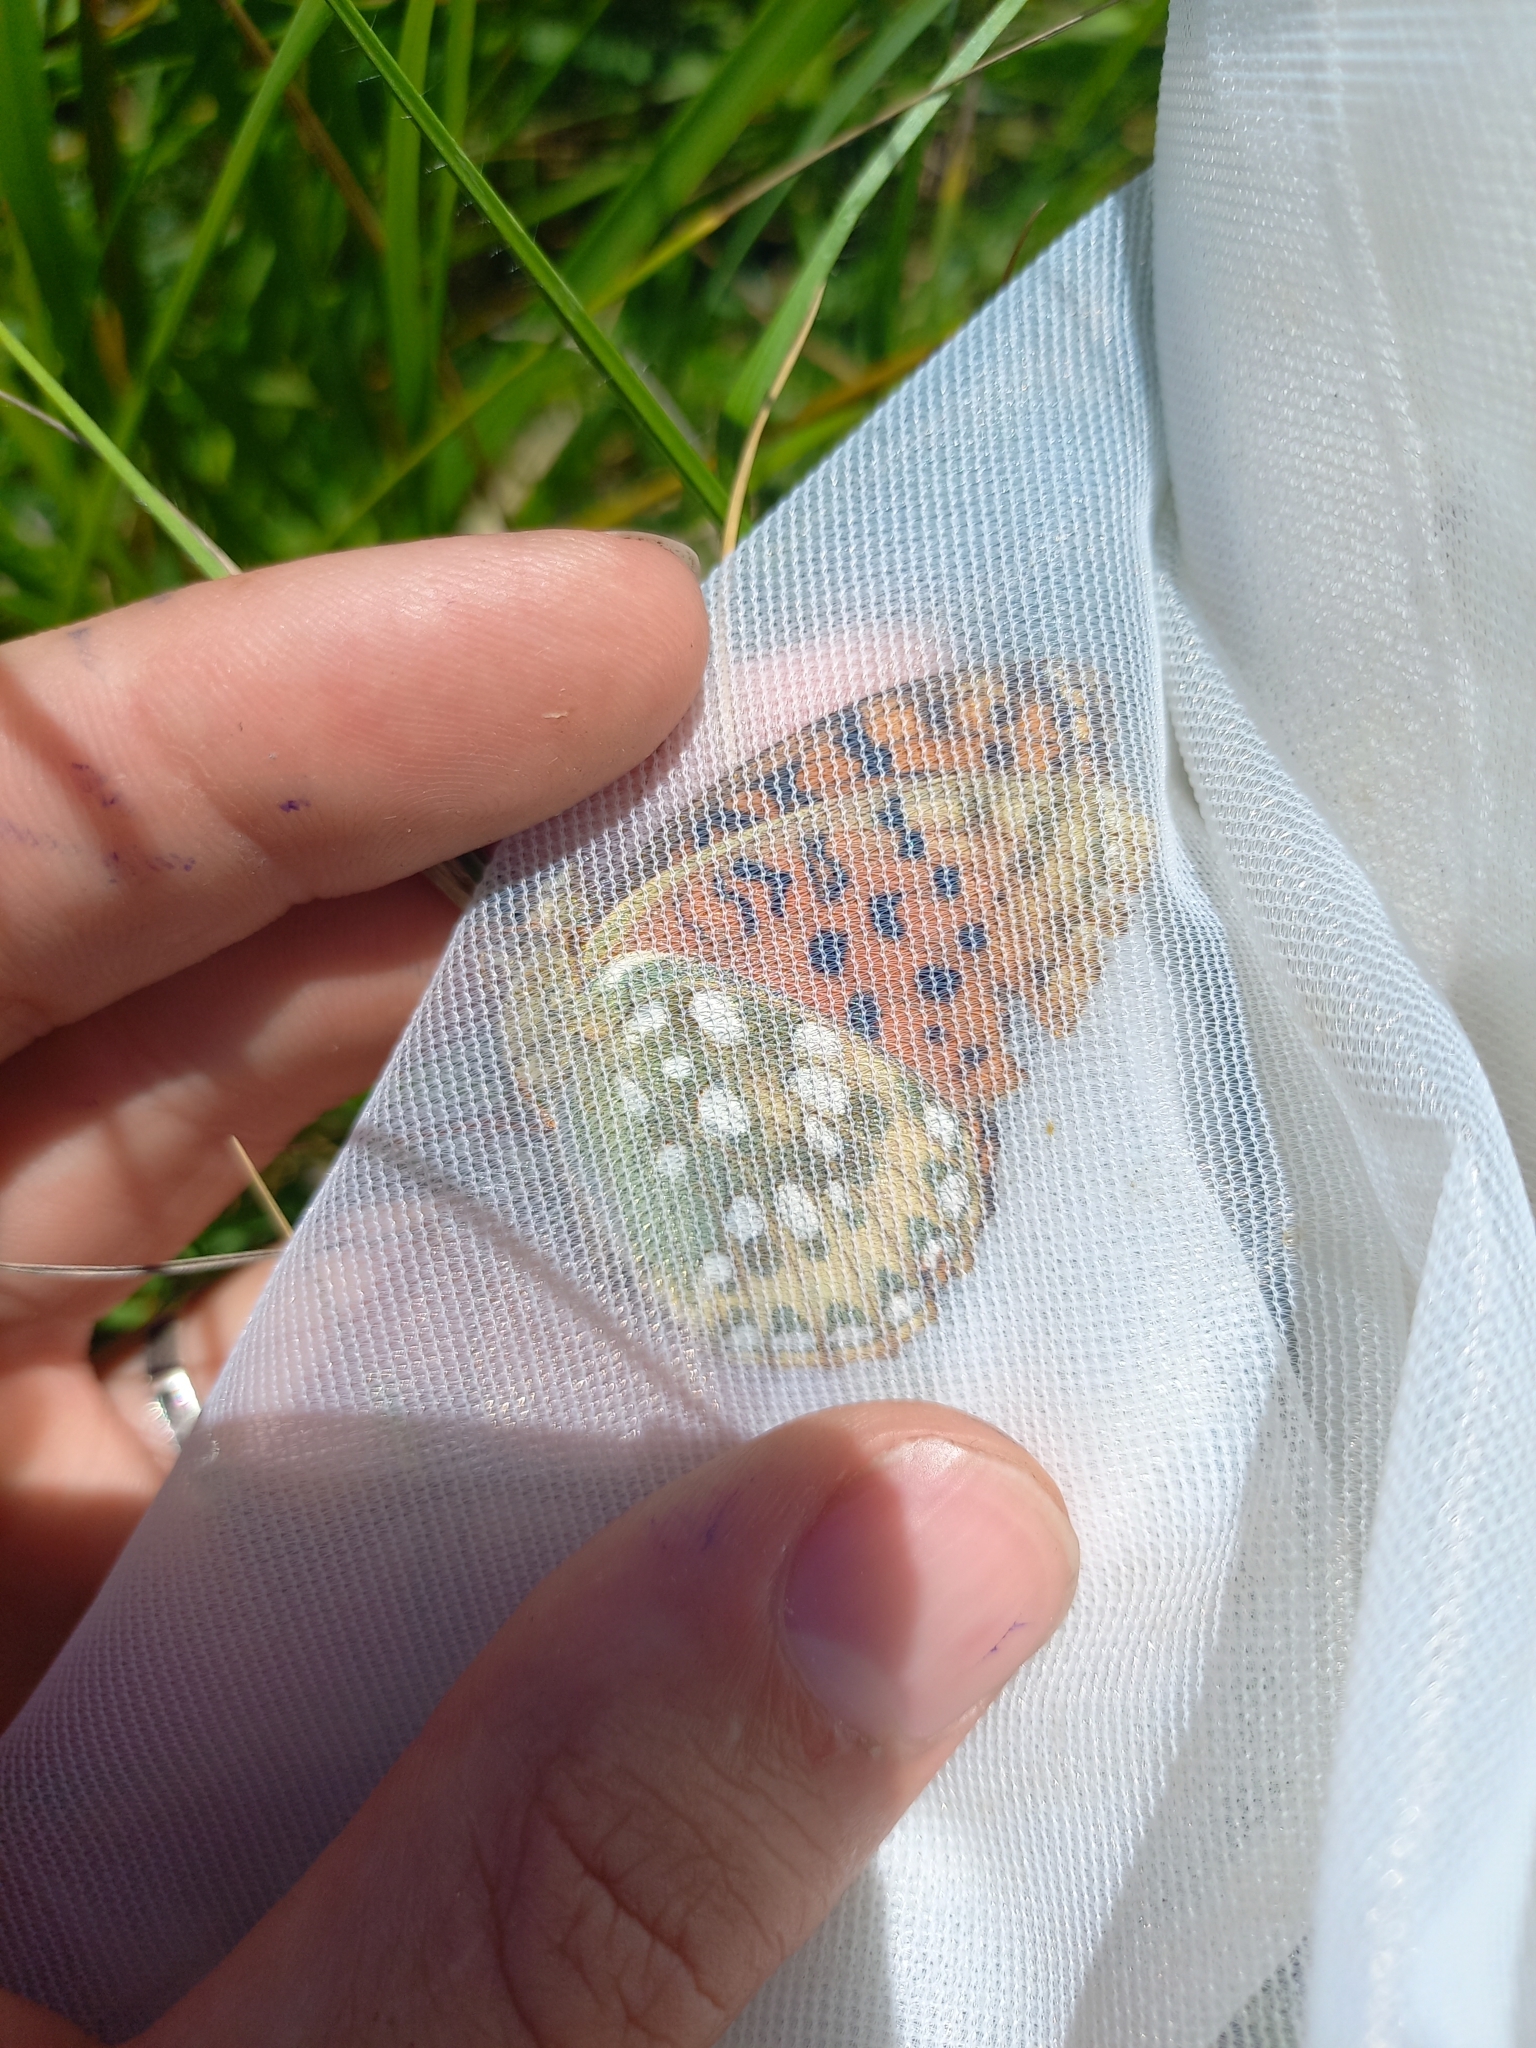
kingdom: Animalia
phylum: Arthropoda
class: Insecta
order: Lepidoptera
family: Nymphalidae
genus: Speyeria
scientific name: Speyeria aglaja
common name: Dark green fritillary
